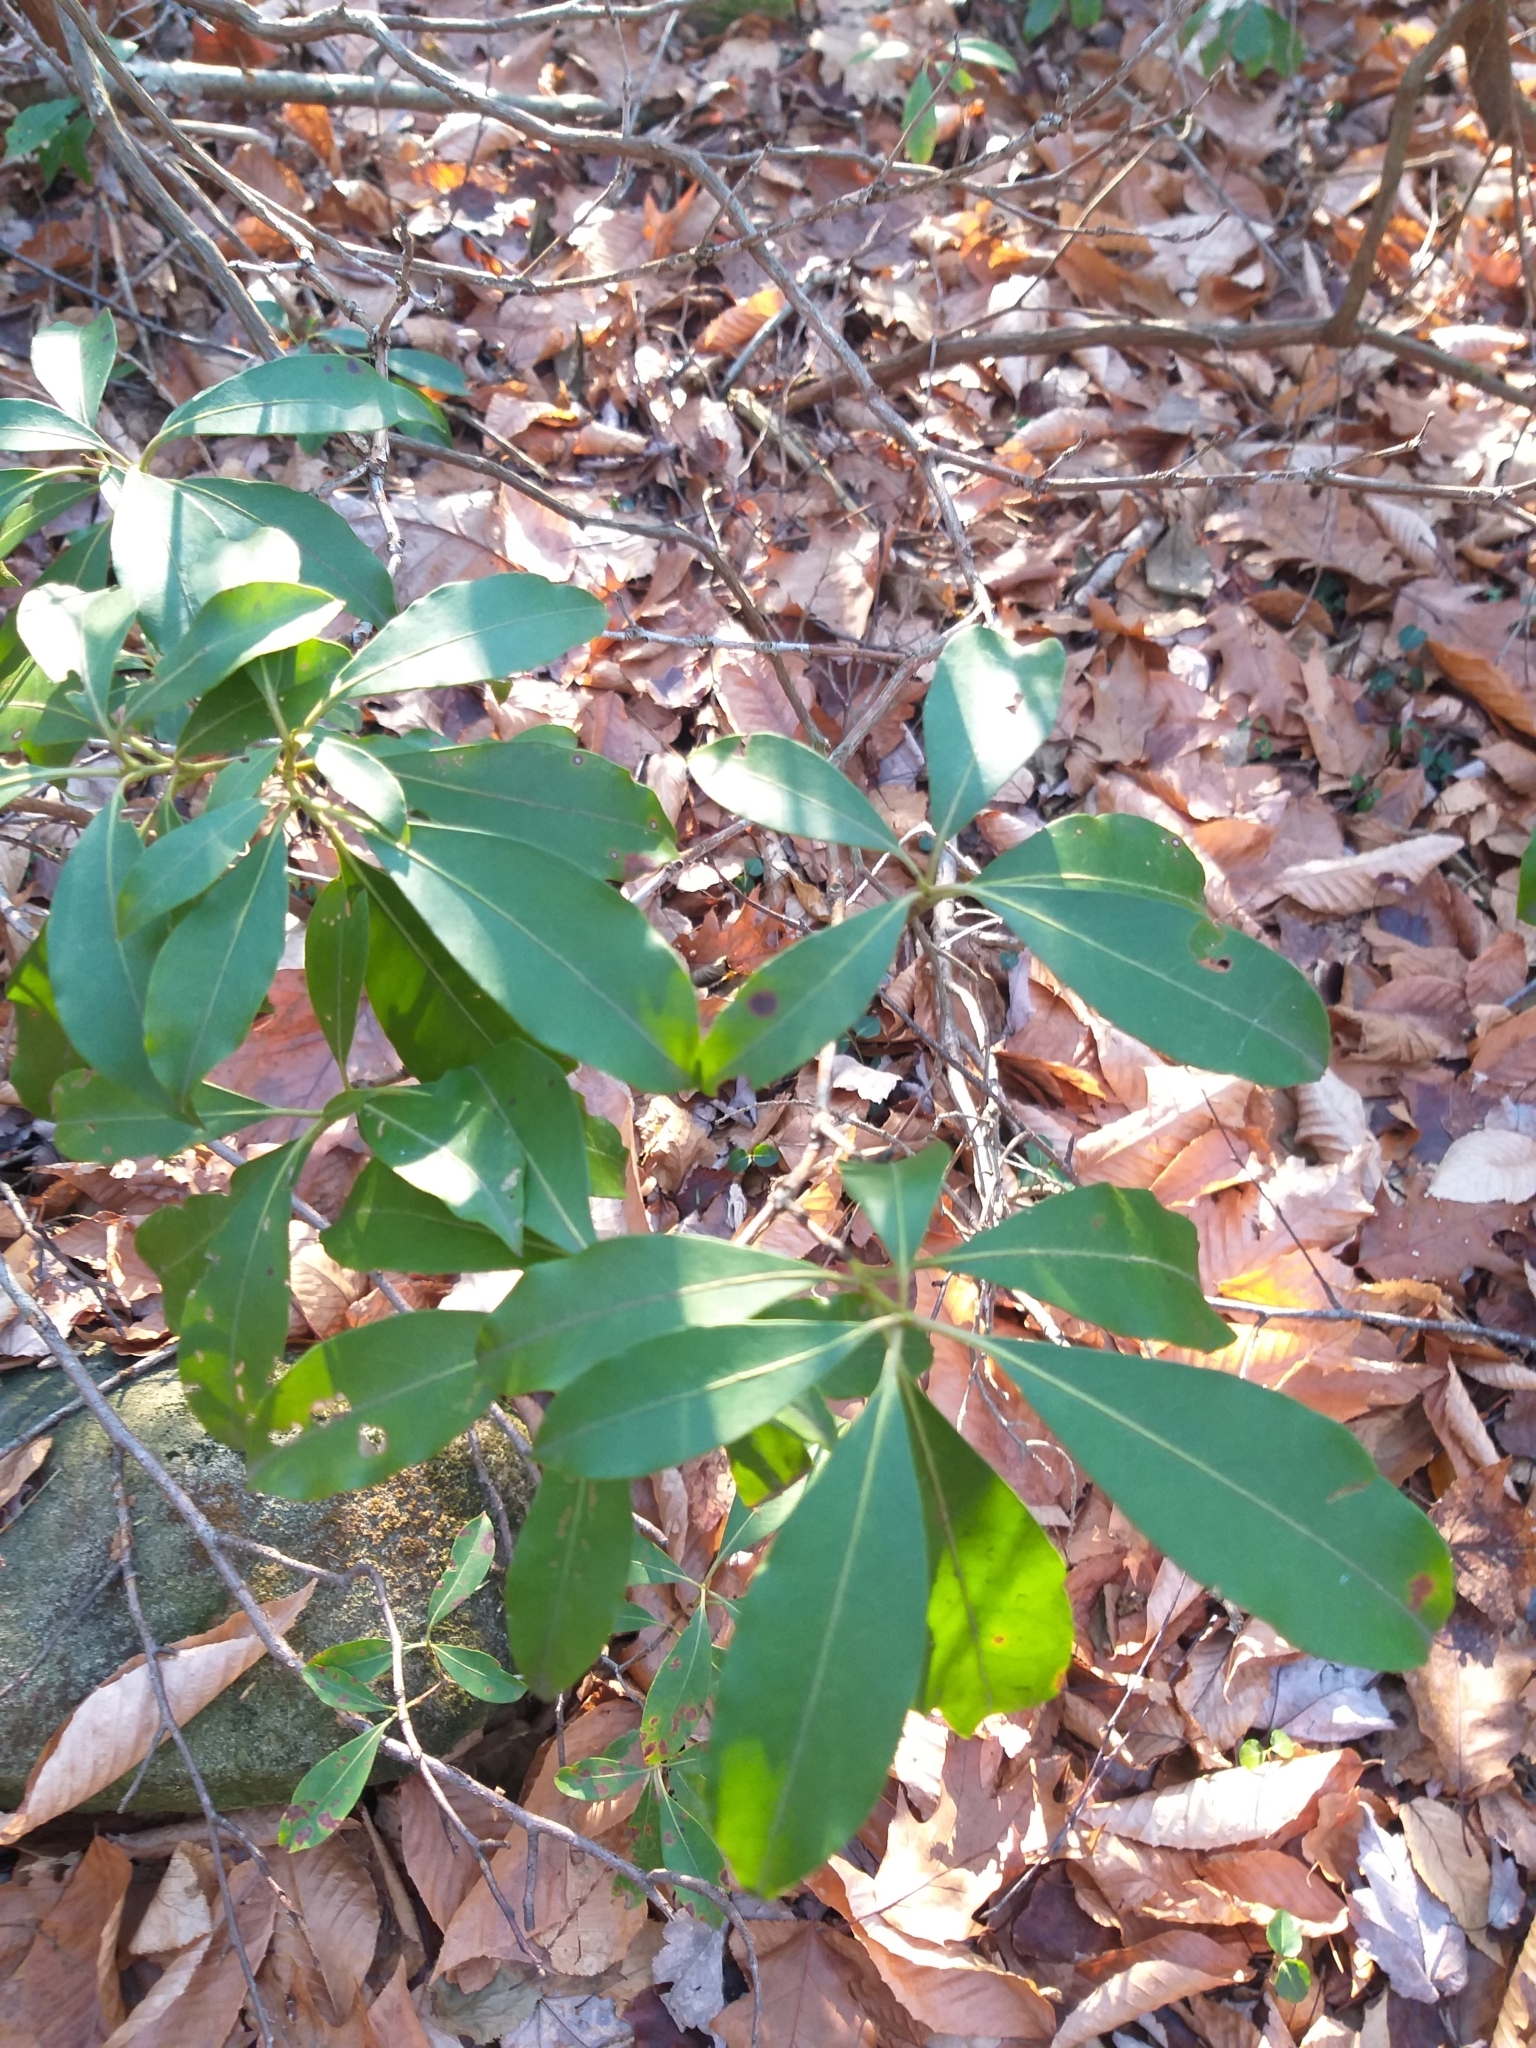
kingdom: Plantae
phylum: Tracheophyta
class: Magnoliopsida
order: Ericales
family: Ericaceae
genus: Kalmia
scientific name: Kalmia latifolia
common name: Mountain-laurel
